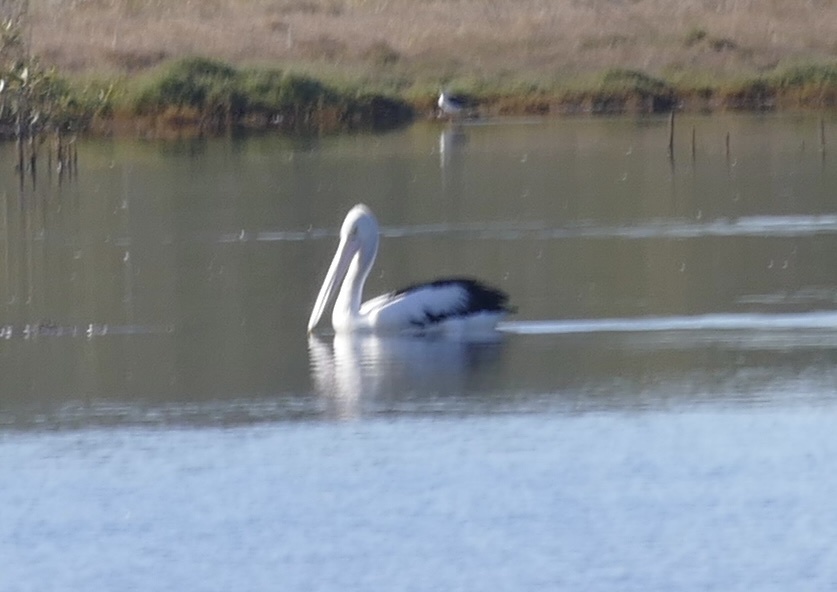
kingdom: Animalia
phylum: Chordata
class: Aves
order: Pelecaniformes
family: Pelecanidae
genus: Pelecanus
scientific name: Pelecanus conspicillatus
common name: Australian pelican
